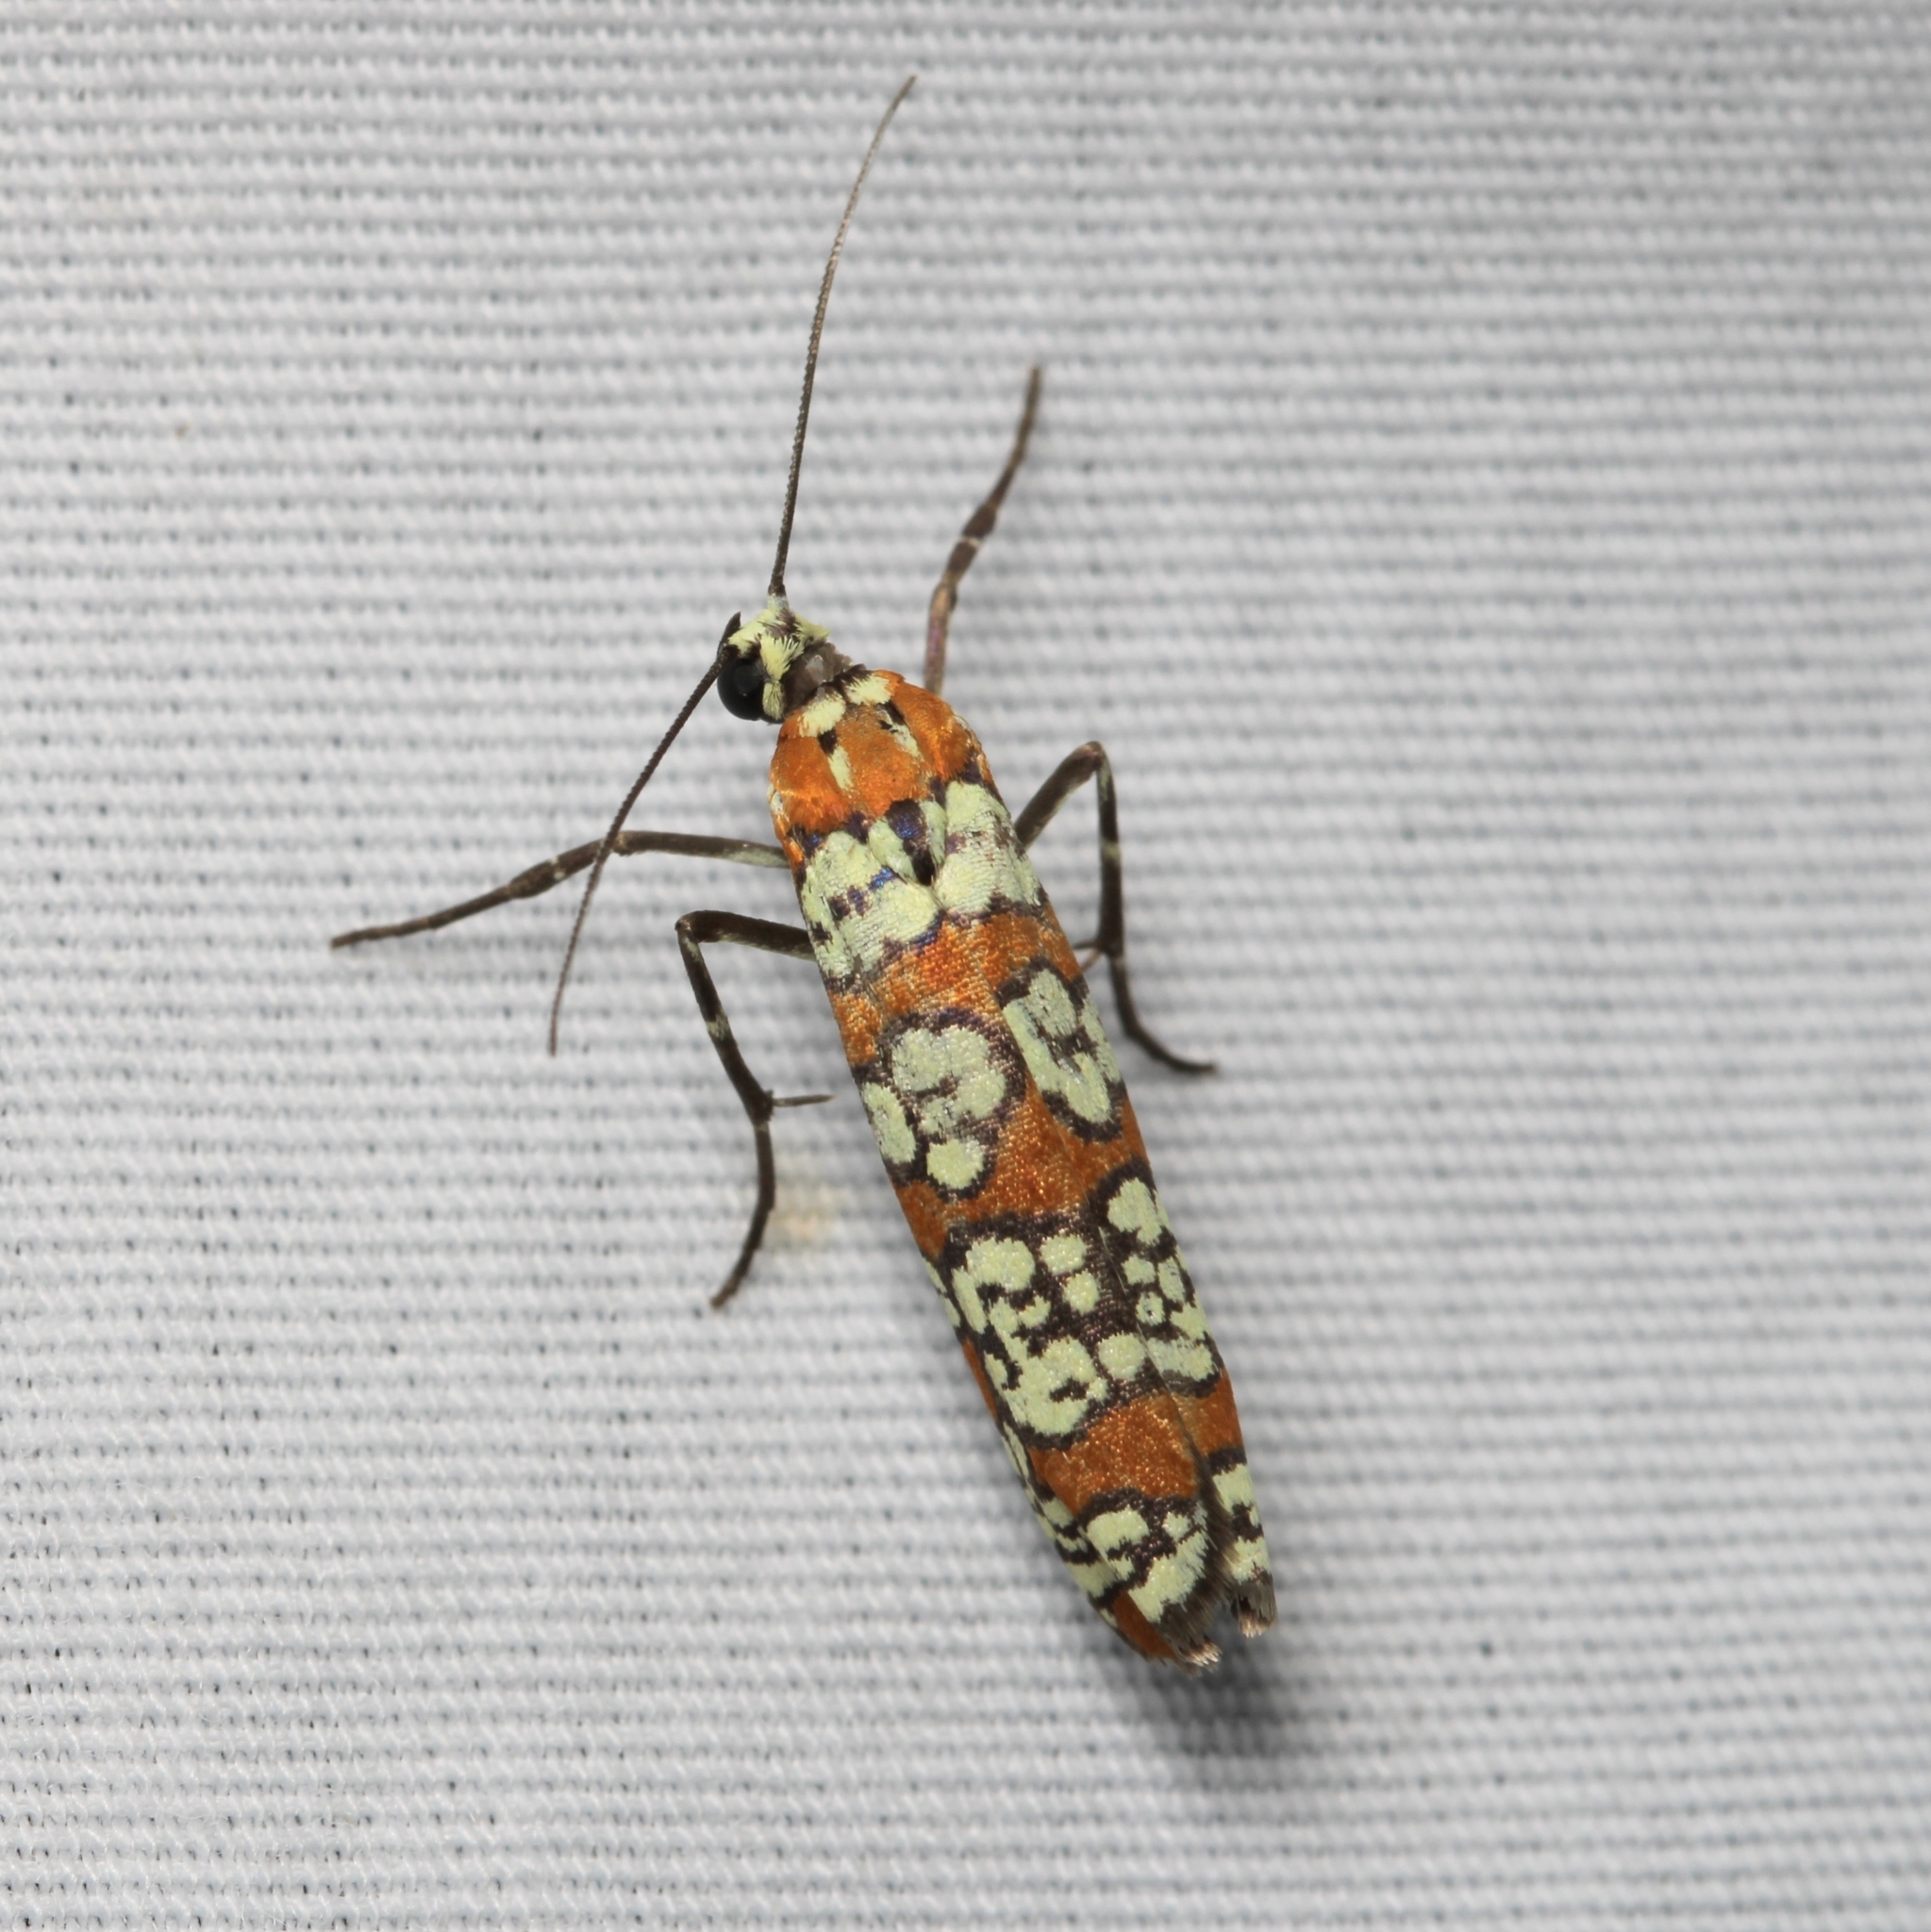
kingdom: Animalia
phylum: Arthropoda
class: Insecta
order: Lepidoptera
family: Attevidae
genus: Atteva
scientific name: Atteva punctella
